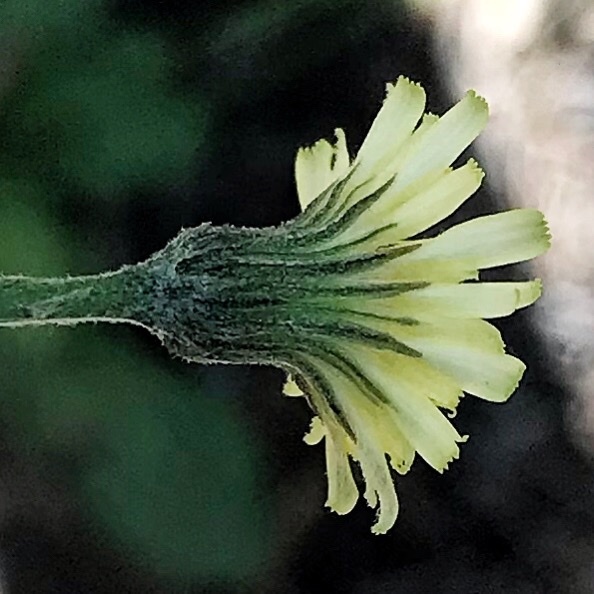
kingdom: Plantae
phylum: Tracheophyta
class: Magnoliopsida
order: Asterales
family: Asteraceae
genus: Hypochaeris
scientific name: Hypochaeris radicata
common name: Flatweed
